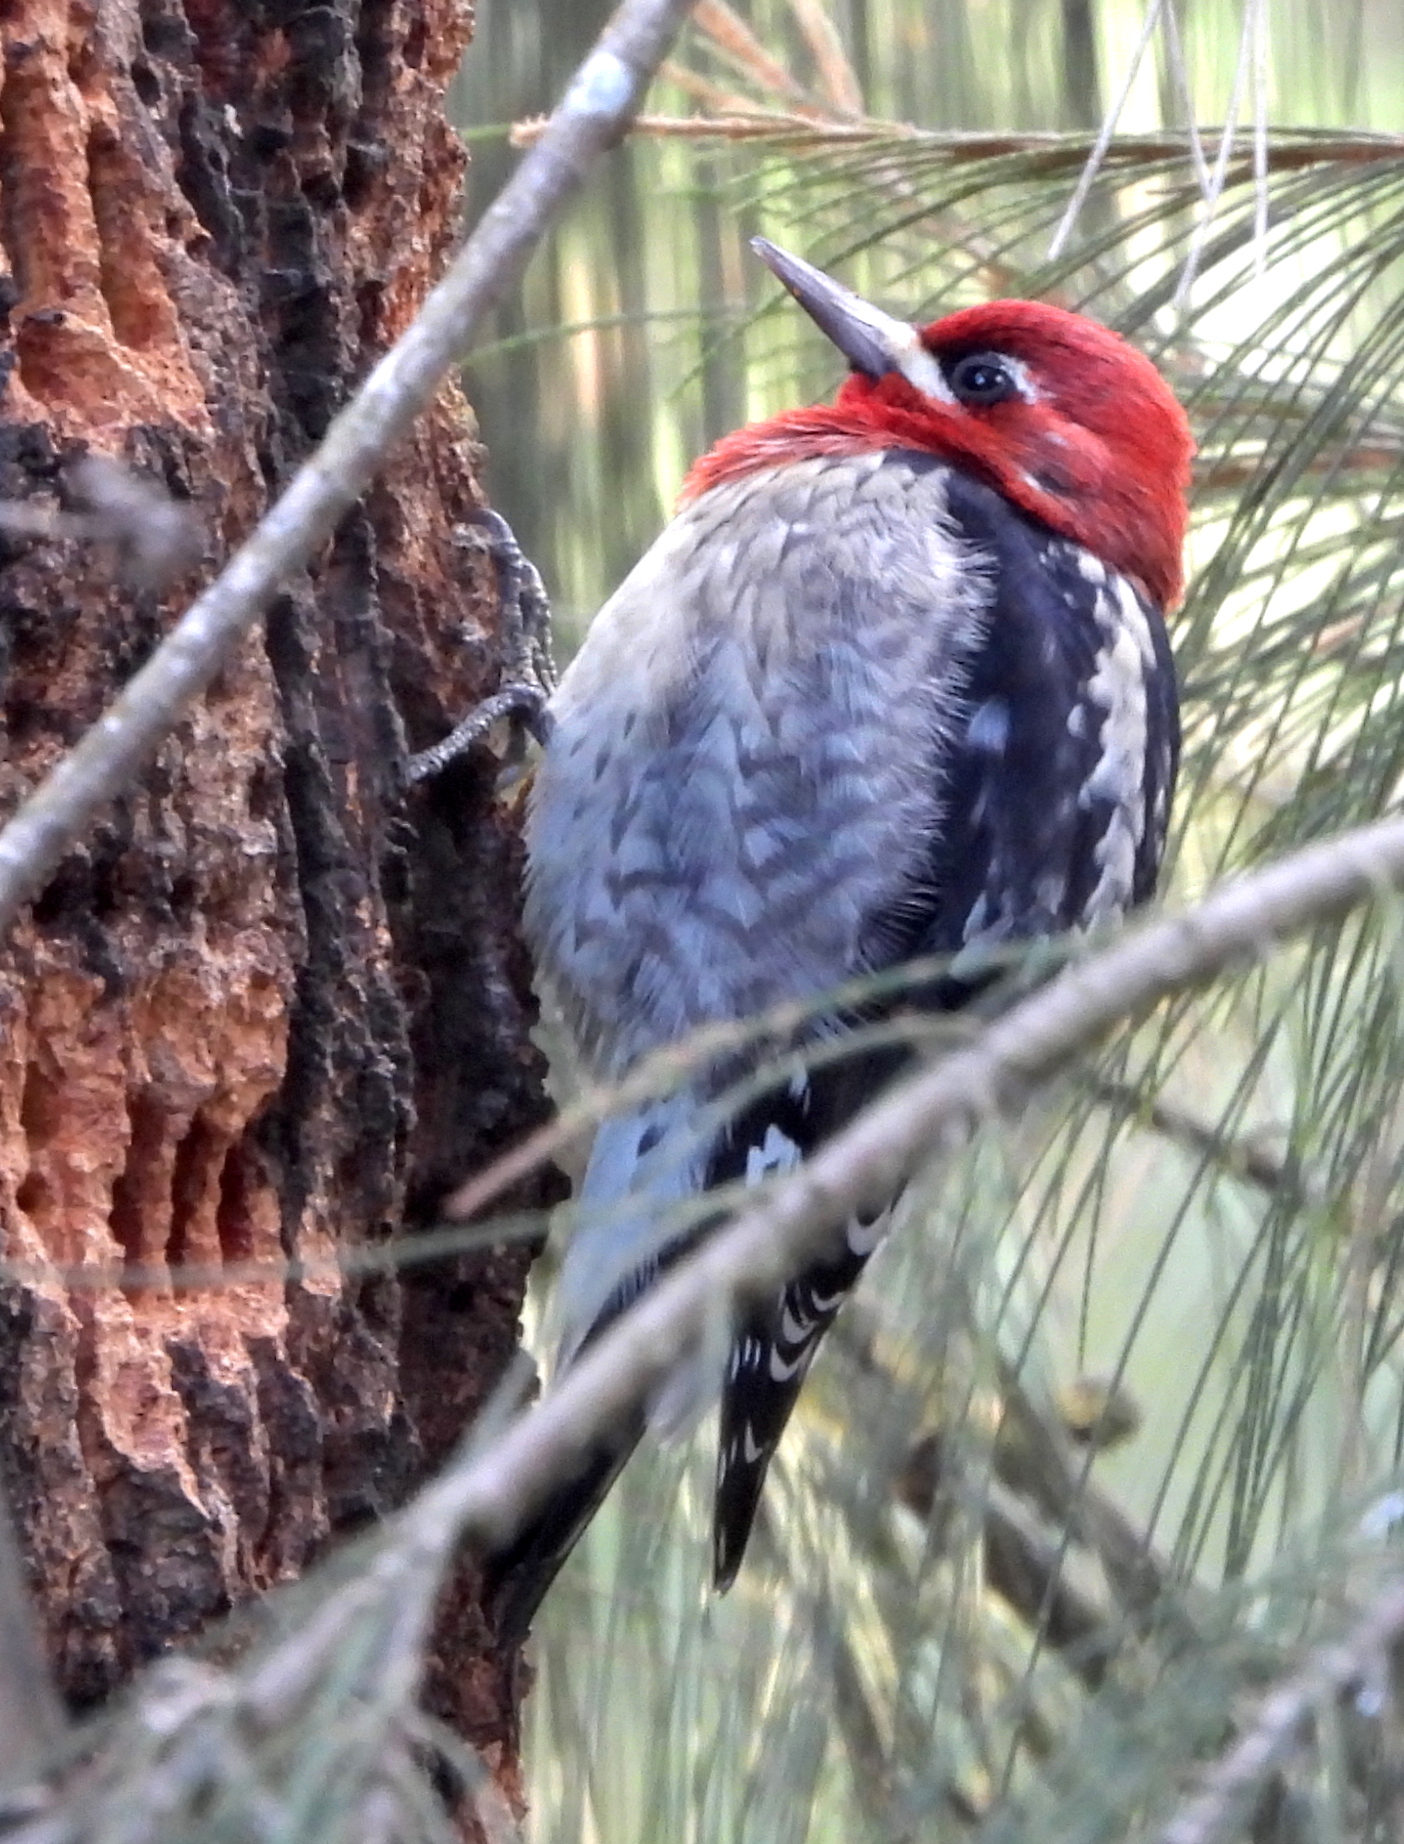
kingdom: Animalia
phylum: Chordata
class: Aves
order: Piciformes
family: Picidae
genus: Sphyrapicus
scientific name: Sphyrapicus ruber
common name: Red-breasted sapsucker
